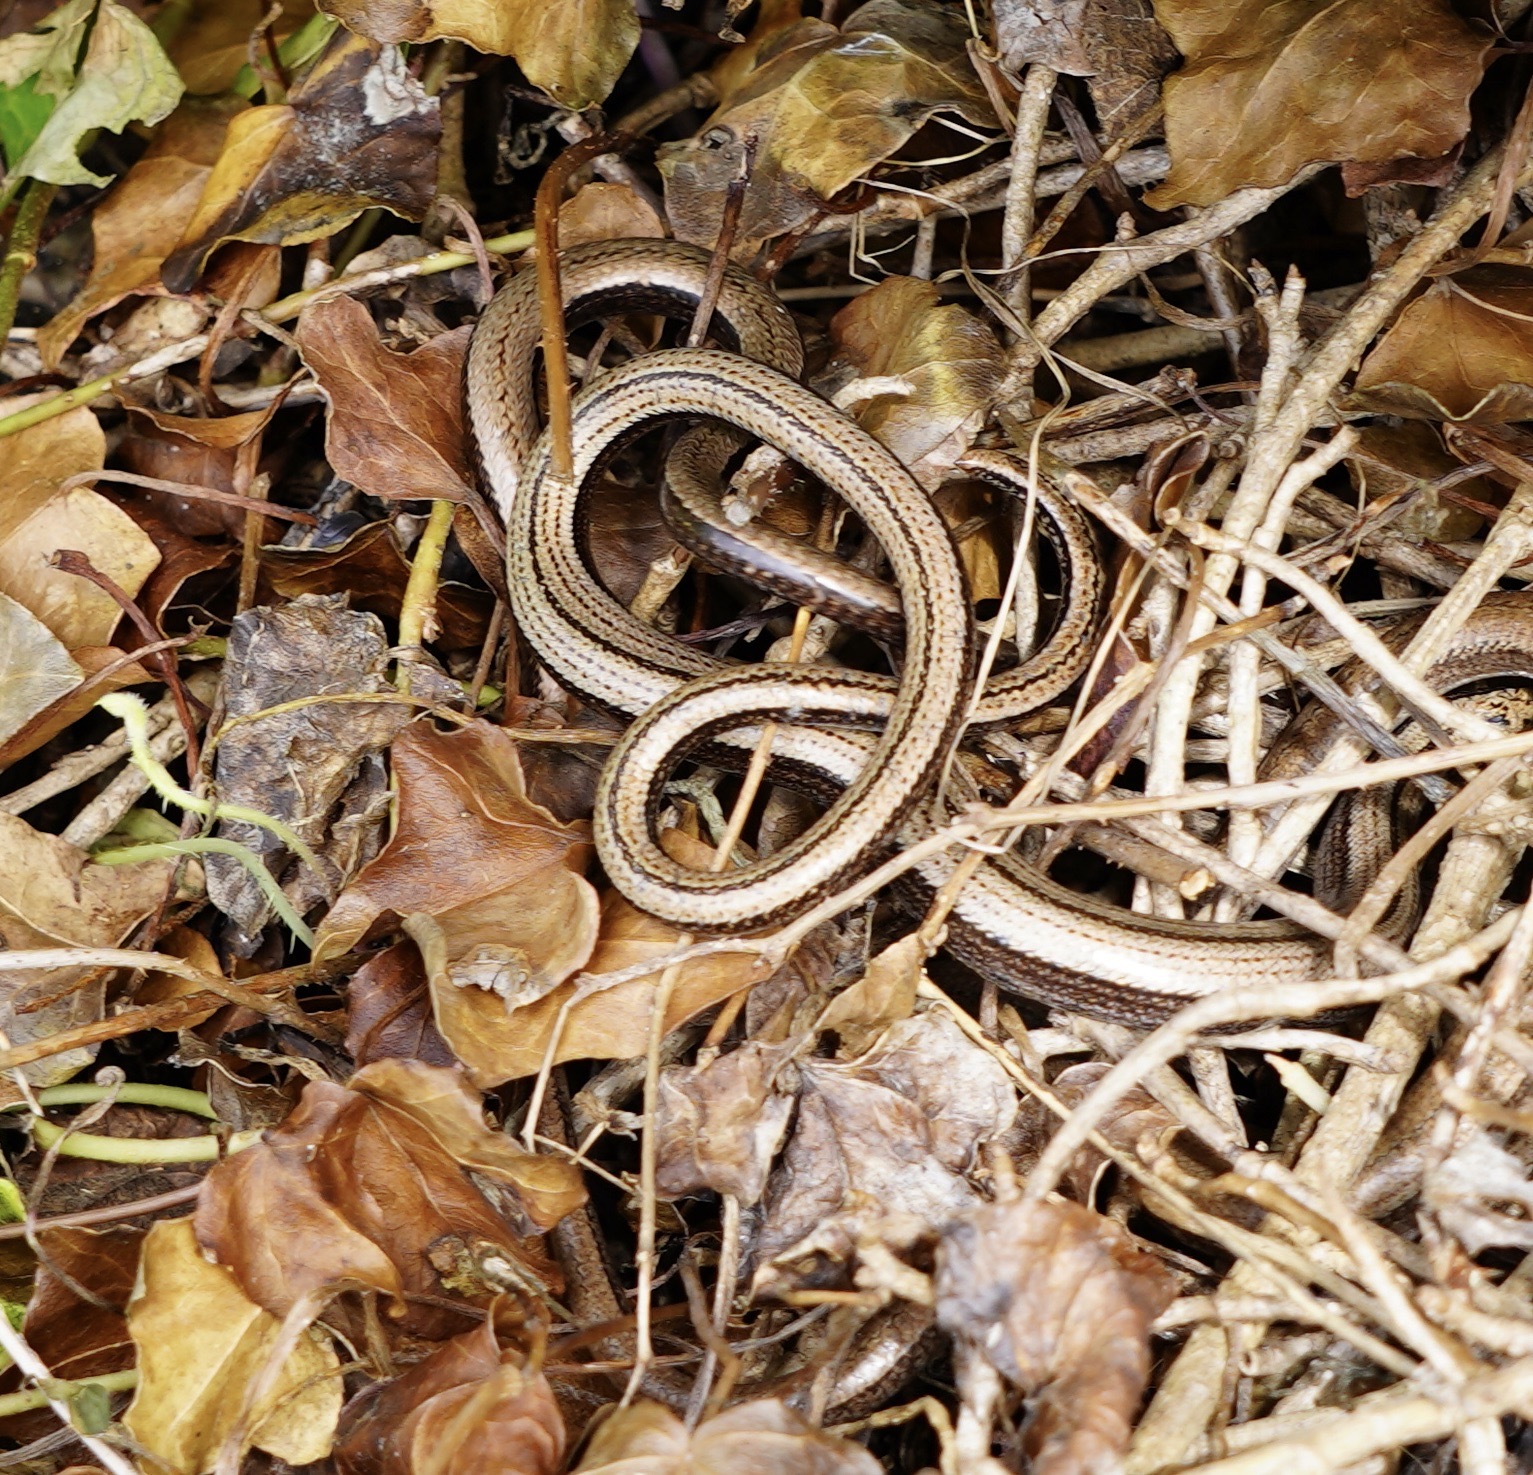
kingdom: Animalia
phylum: Chordata
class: Squamata
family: Anguidae
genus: Anguis
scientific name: Anguis fragilis
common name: Slow worm
